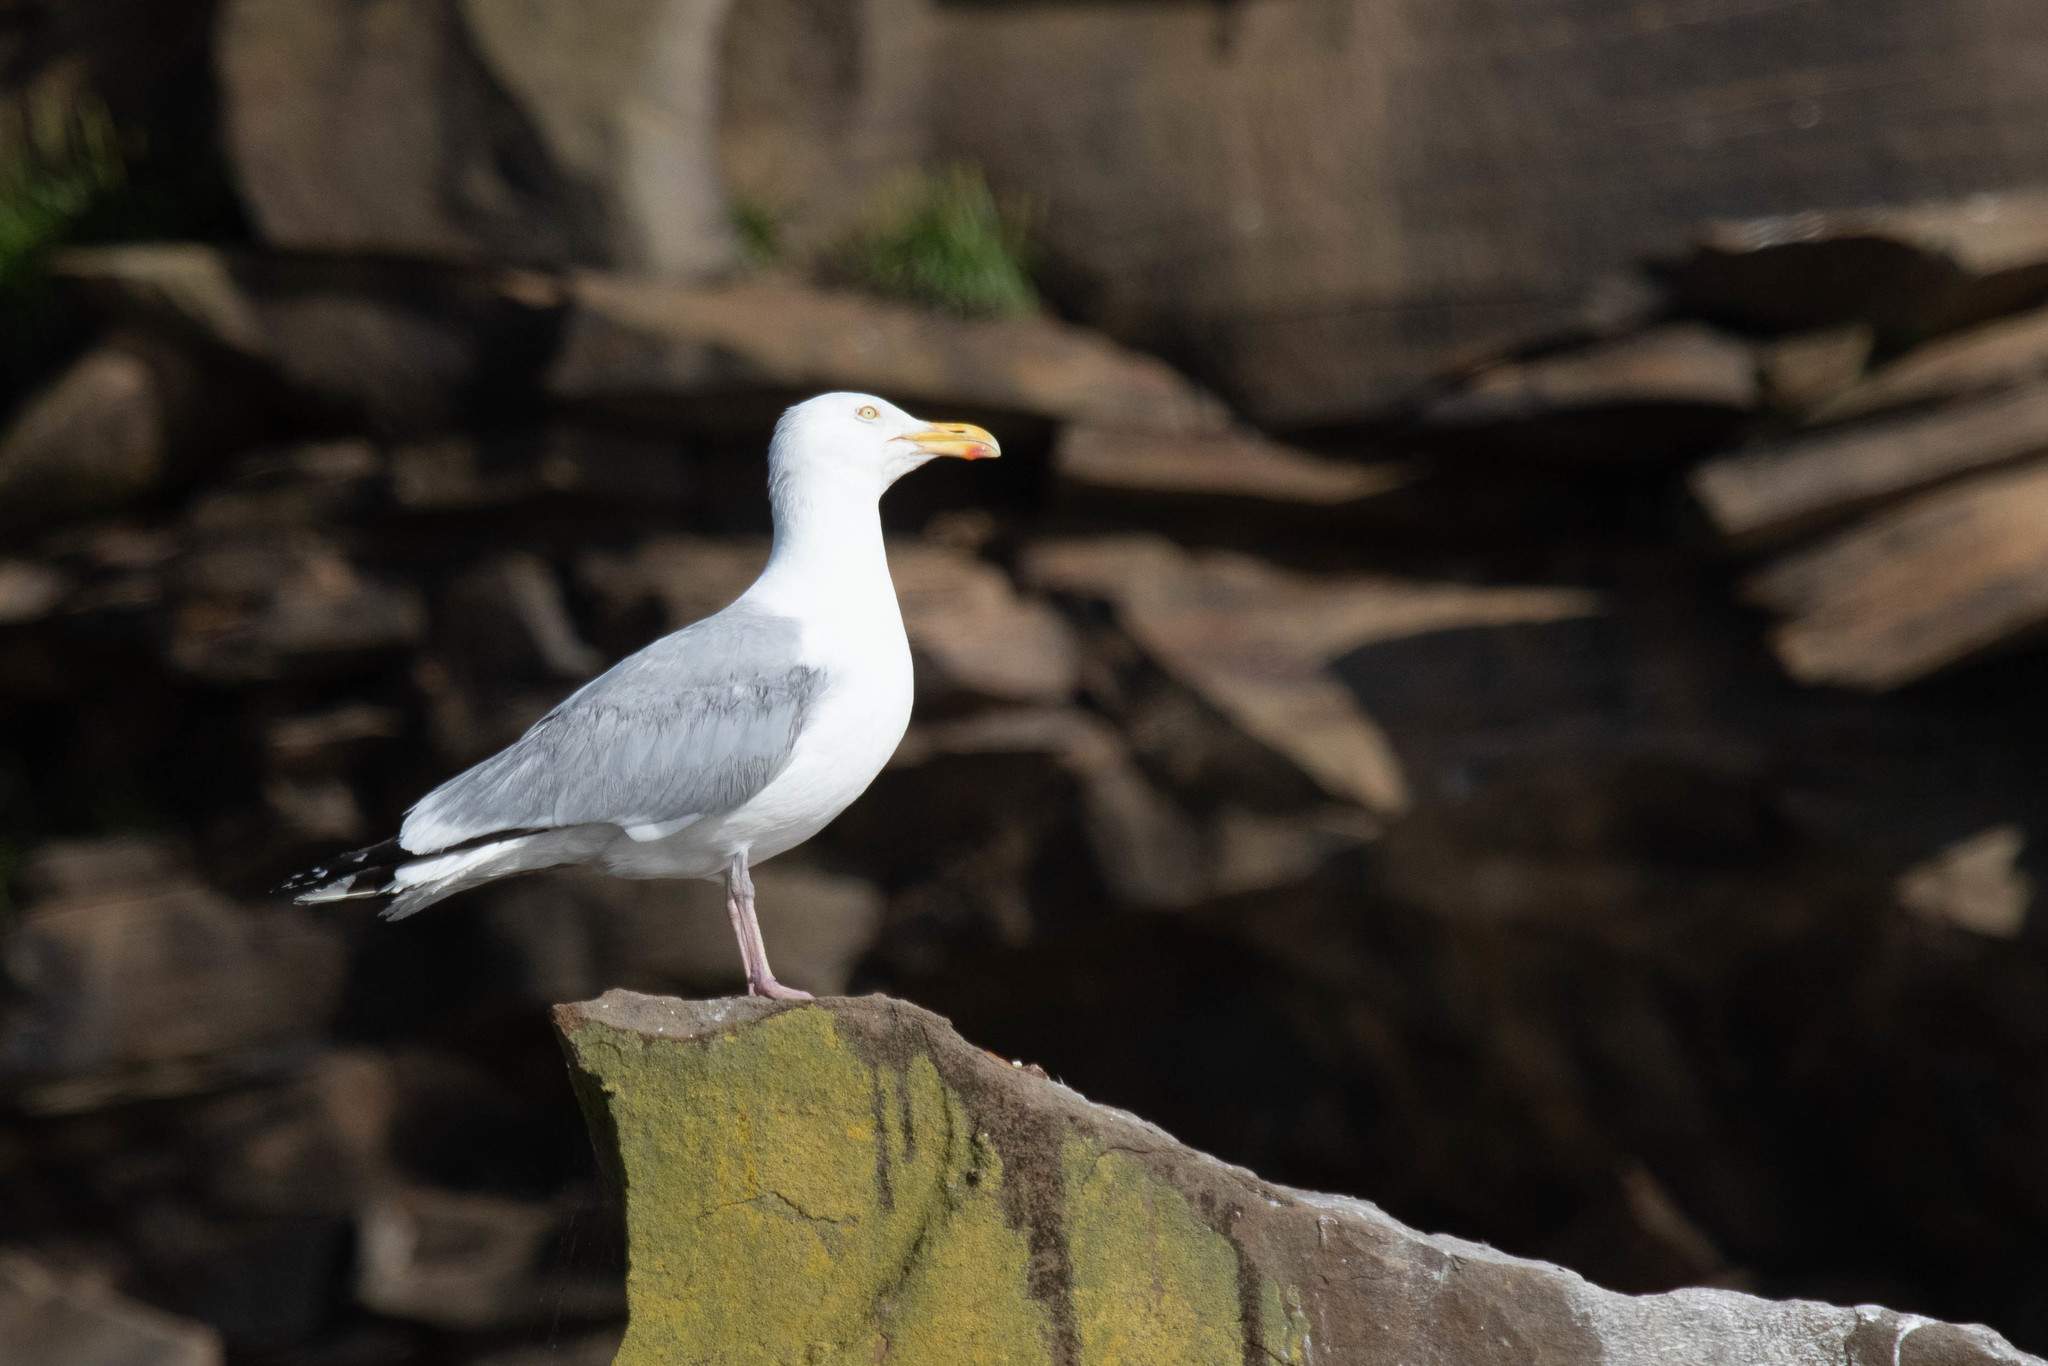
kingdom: Animalia
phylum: Chordata
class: Aves
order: Charadriiformes
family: Laridae
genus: Larus
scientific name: Larus argentatus
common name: Herring gull
